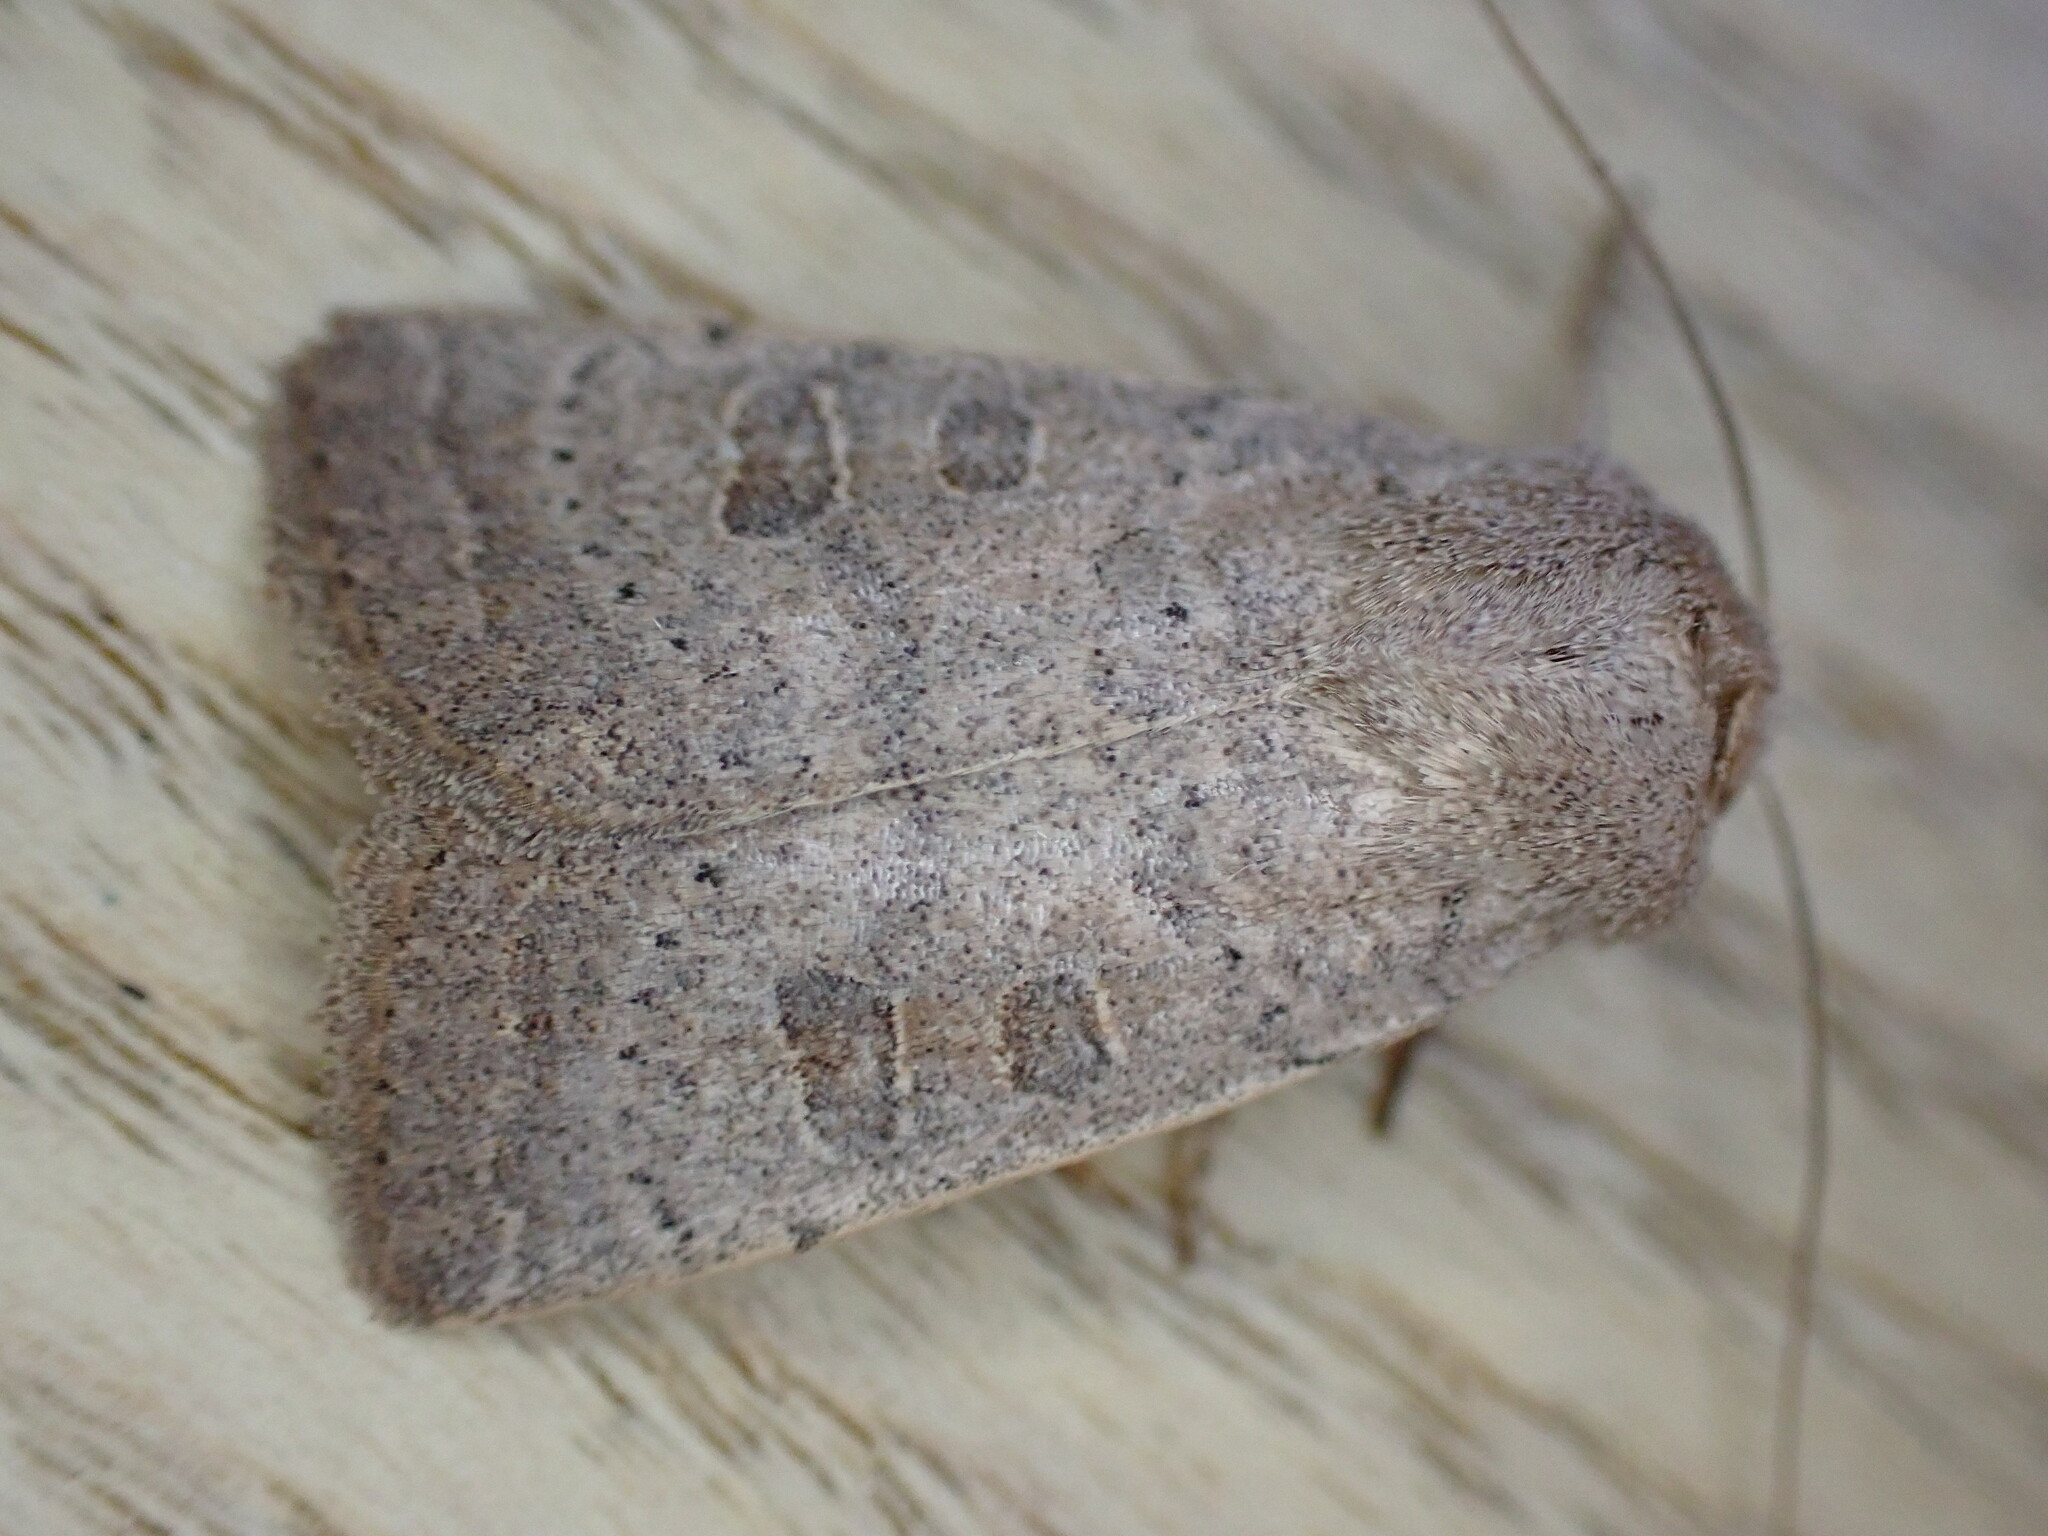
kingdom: Animalia
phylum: Arthropoda
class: Insecta
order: Lepidoptera
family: Noctuidae
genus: Hoplodrina
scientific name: Hoplodrina ambigua
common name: Vine's rustic
